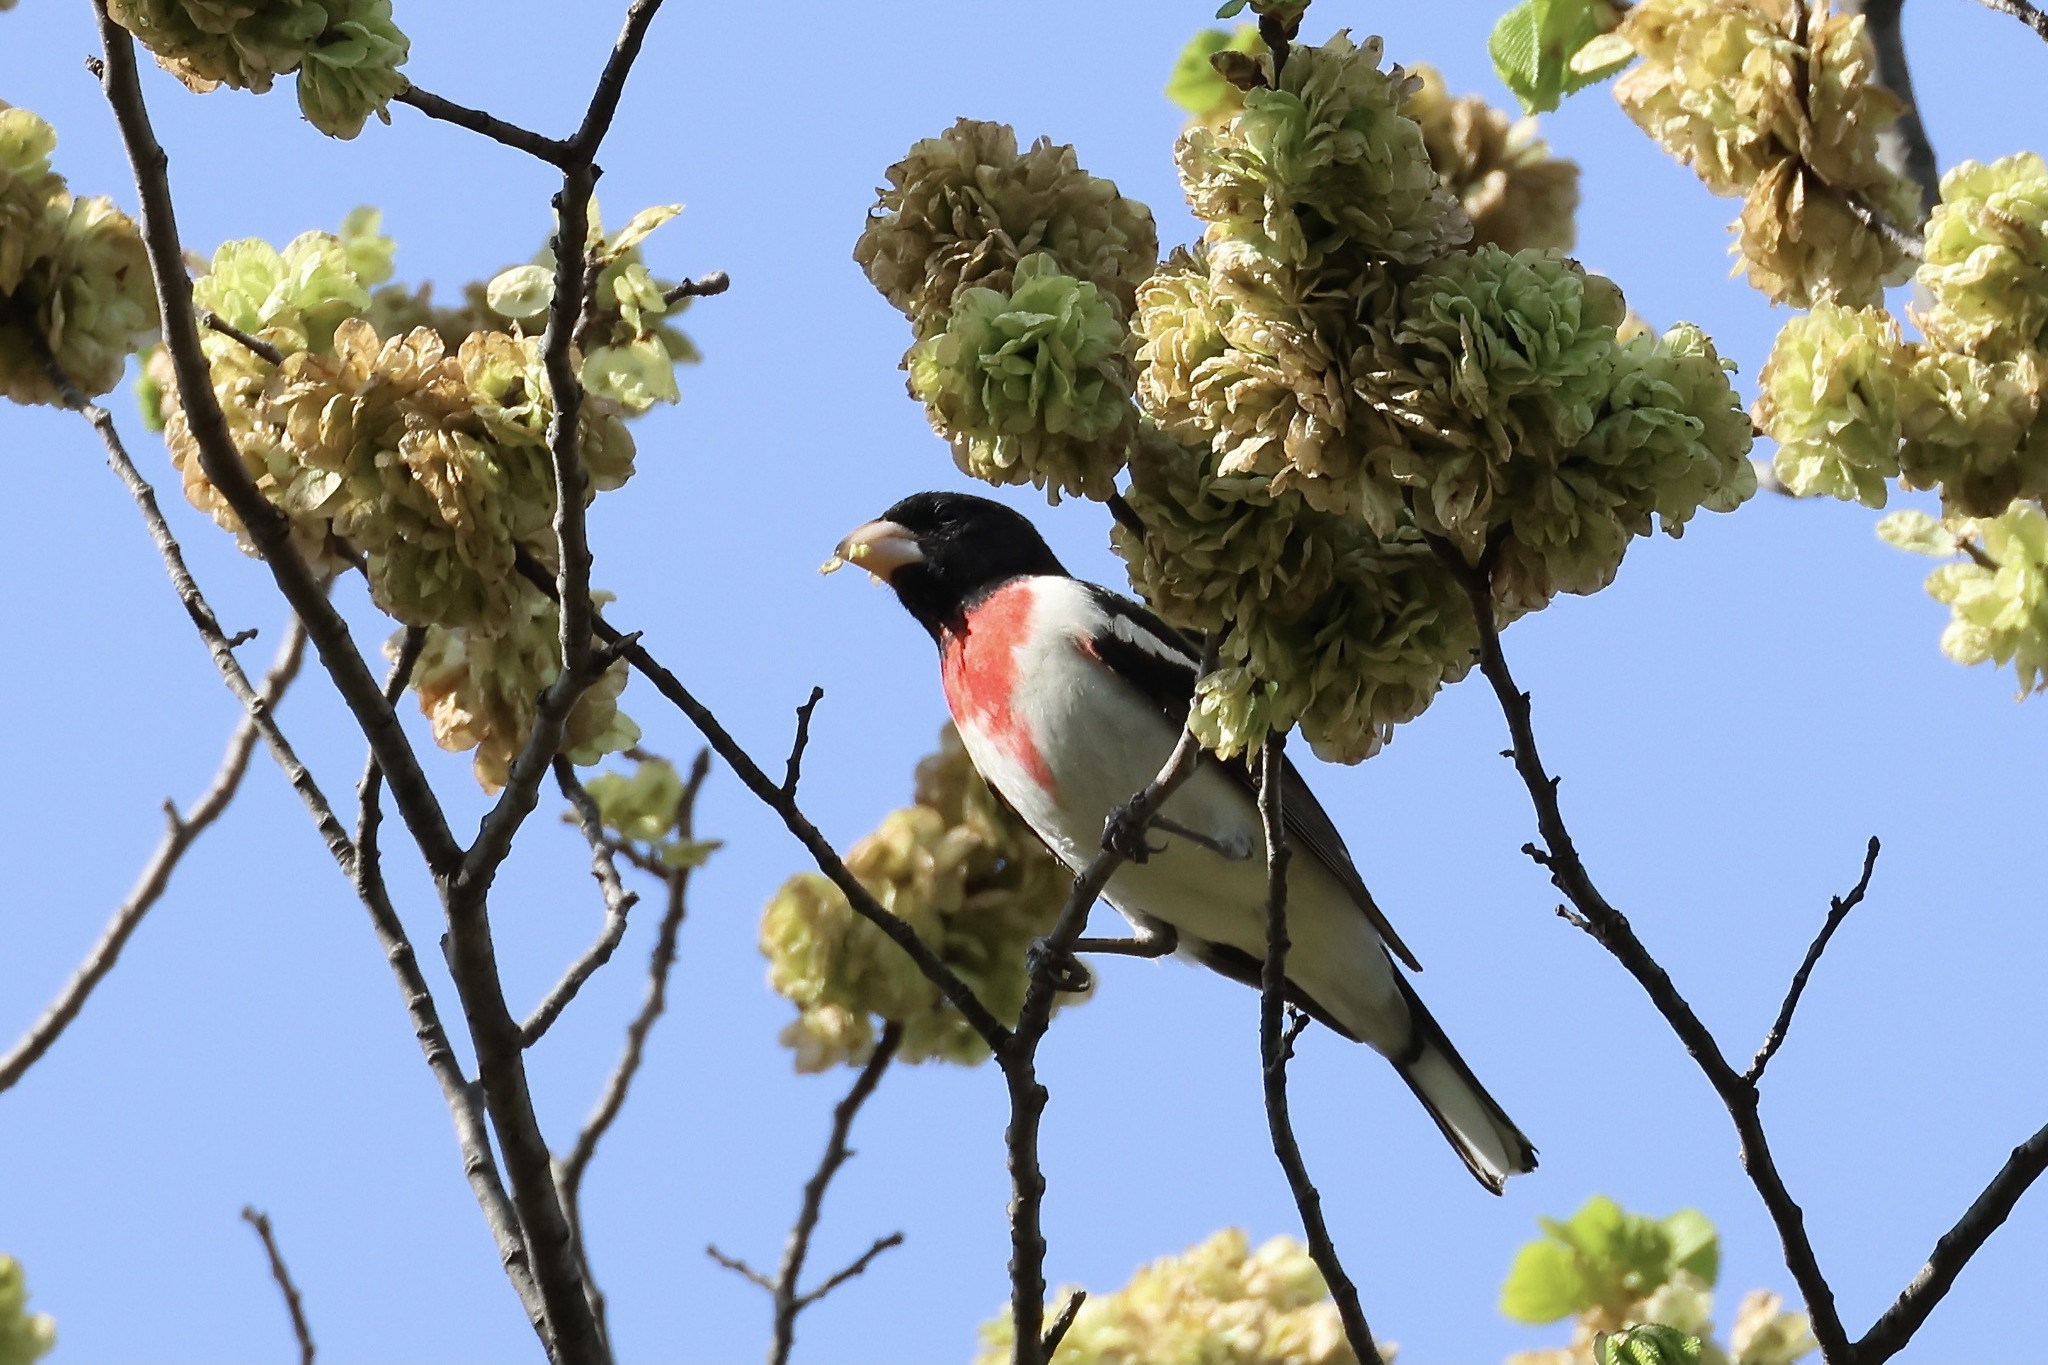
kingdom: Animalia
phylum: Chordata
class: Aves
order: Passeriformes
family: Cardinalidae
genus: Pheucticus
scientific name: Pheucticus ludovicianus
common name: Rose-breasted grosbeak
